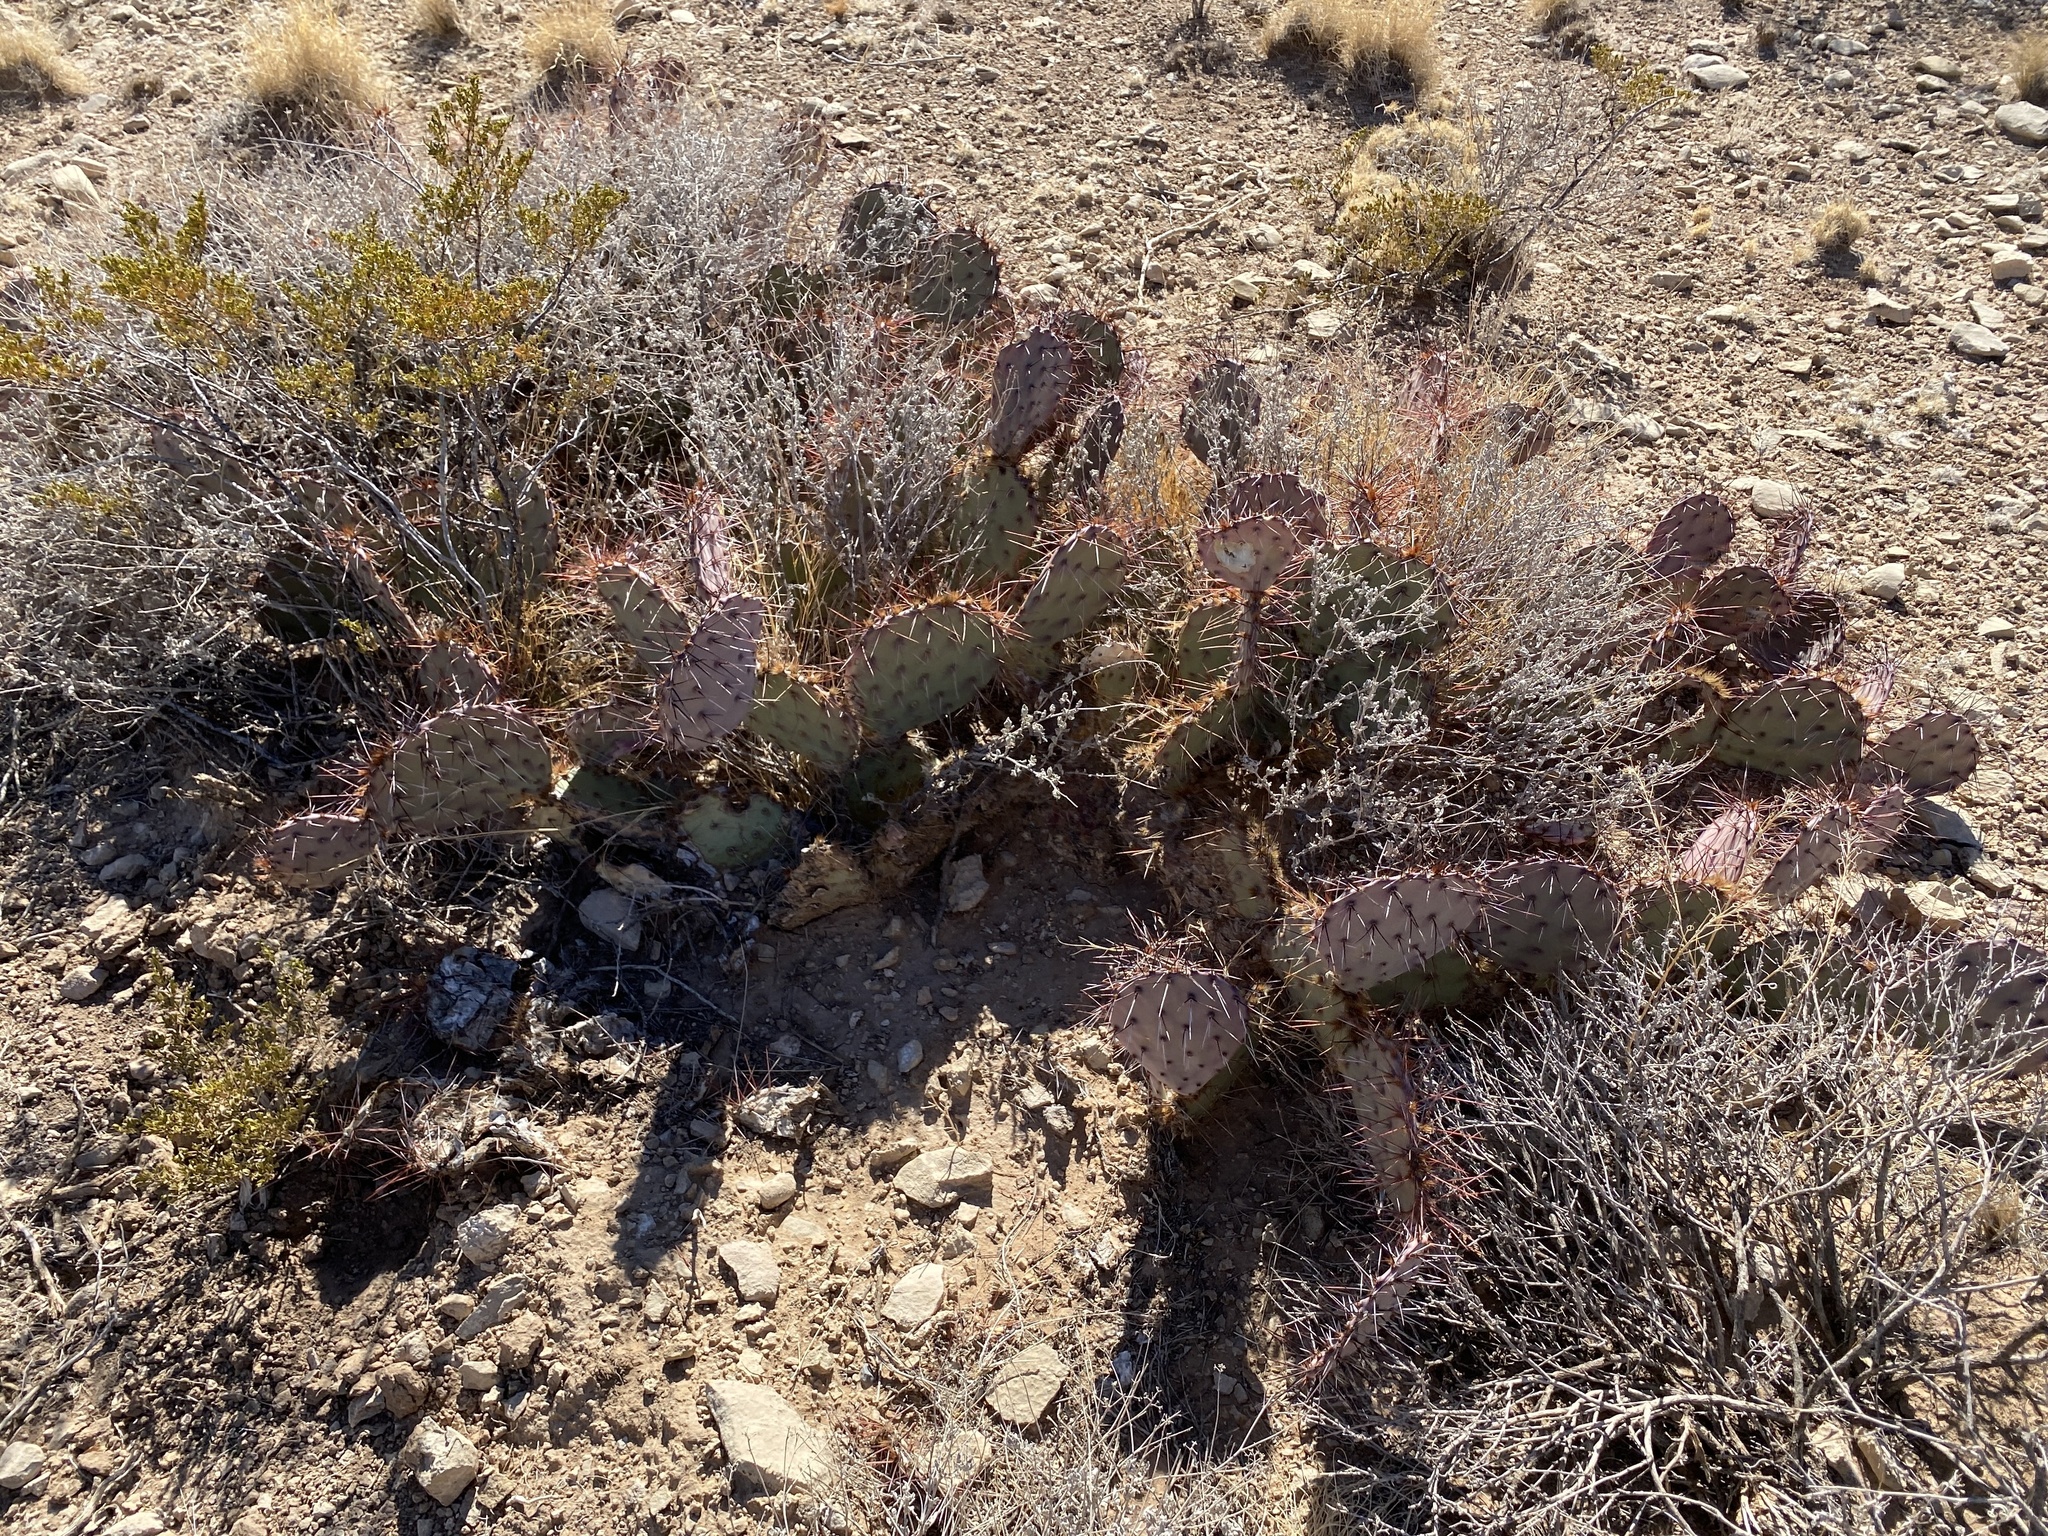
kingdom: Plantae
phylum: Tracheophyta
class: Magnoliopsida
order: Caryophyllales
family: Cactaceae
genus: Opuntia
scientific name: Opuntia macrocentra
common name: Purple prickly-pear
